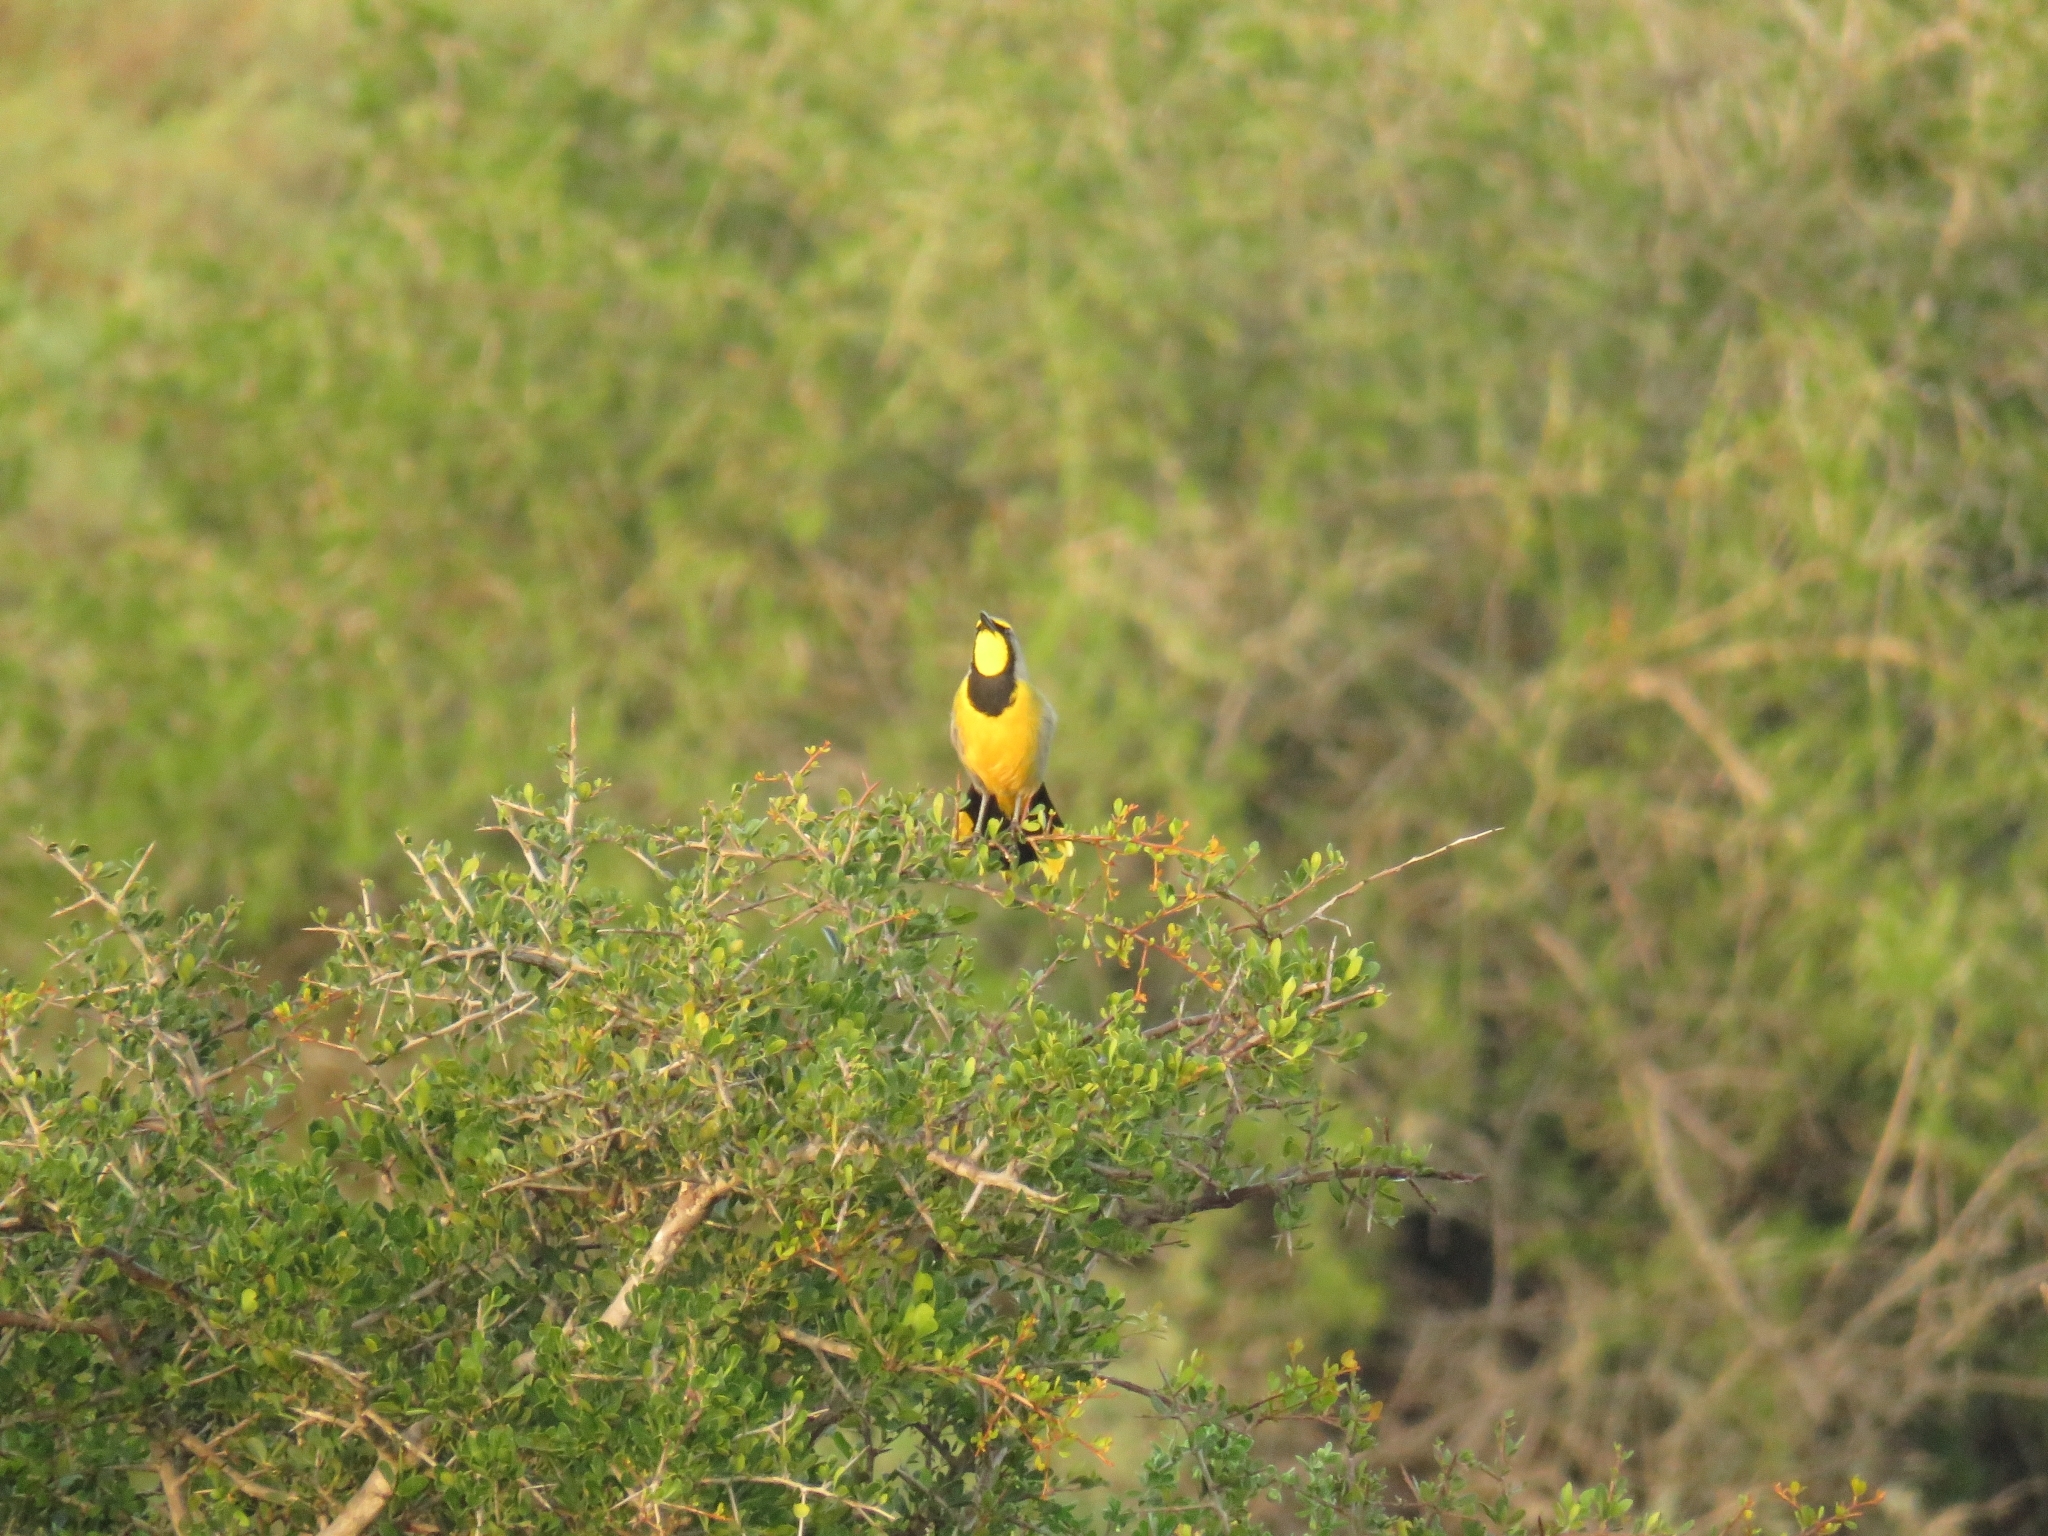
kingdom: Animalia
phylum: Chordata
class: Aves
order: Passeriformes
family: Malaconotidae
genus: Telophorus
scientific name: Telophorus zeylonus
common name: Bokmakierie
